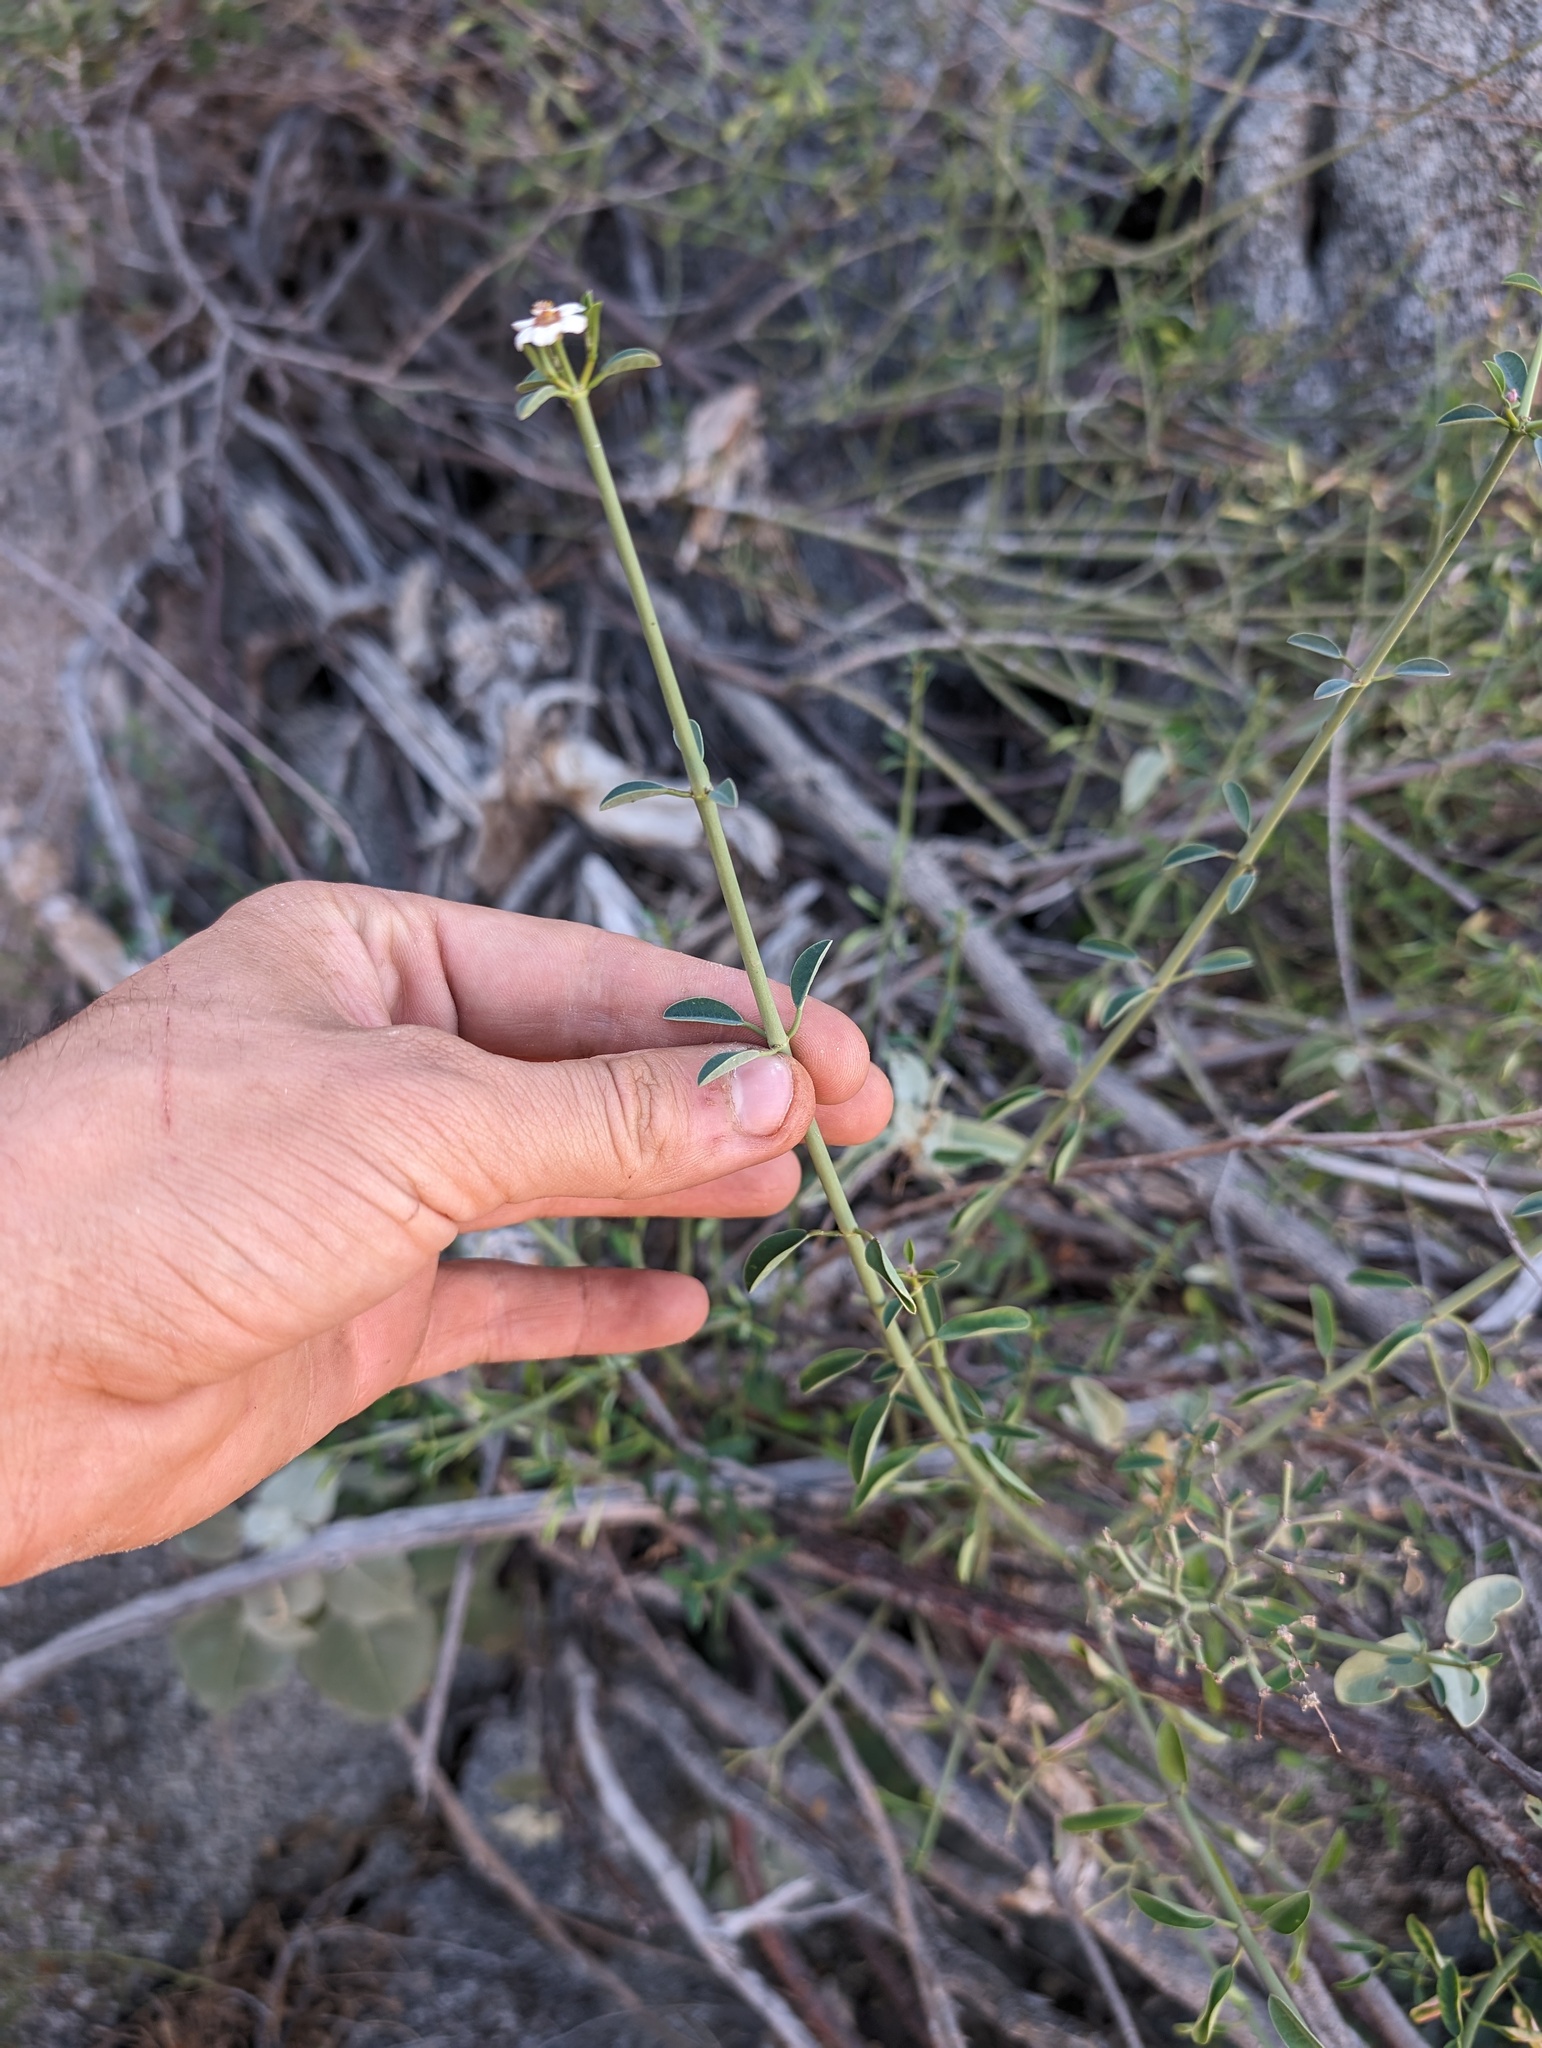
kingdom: Plantae
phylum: Tracheophyta
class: Magnoliopsida
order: Malpighiales
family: Euphorbiaceae
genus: Euphorbia
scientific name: Euphorbia xanti
